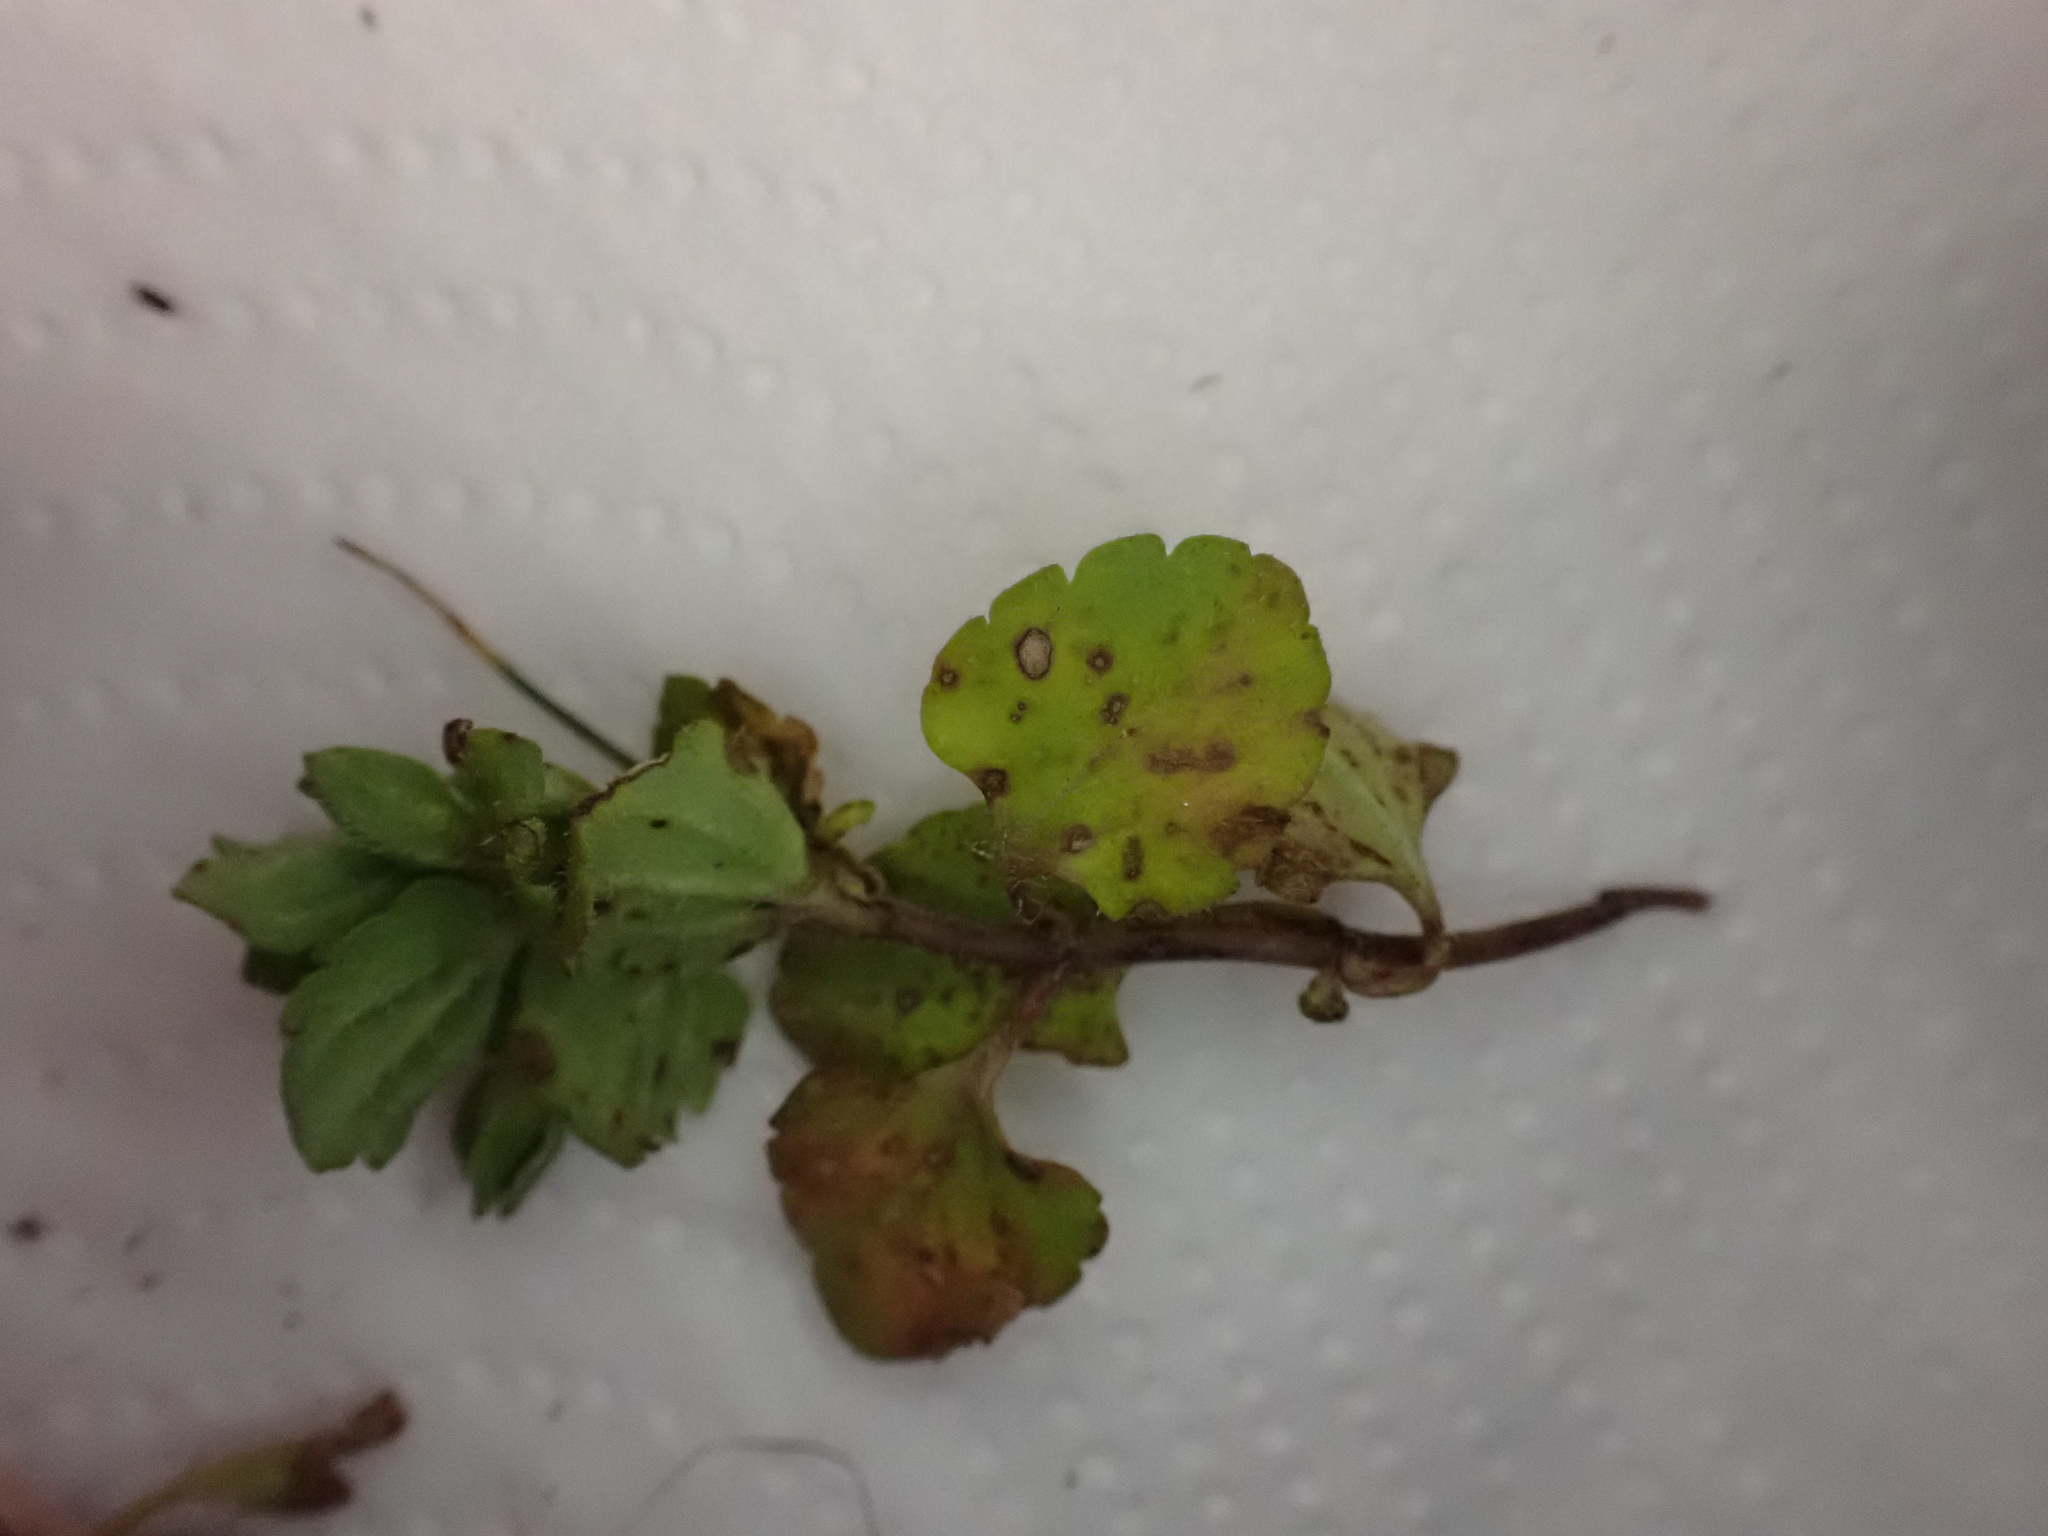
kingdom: Fungi
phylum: Ascomycota
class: Dothideomycetes
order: Asterinales
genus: Discogloeum
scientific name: Discogloeum veronicae
